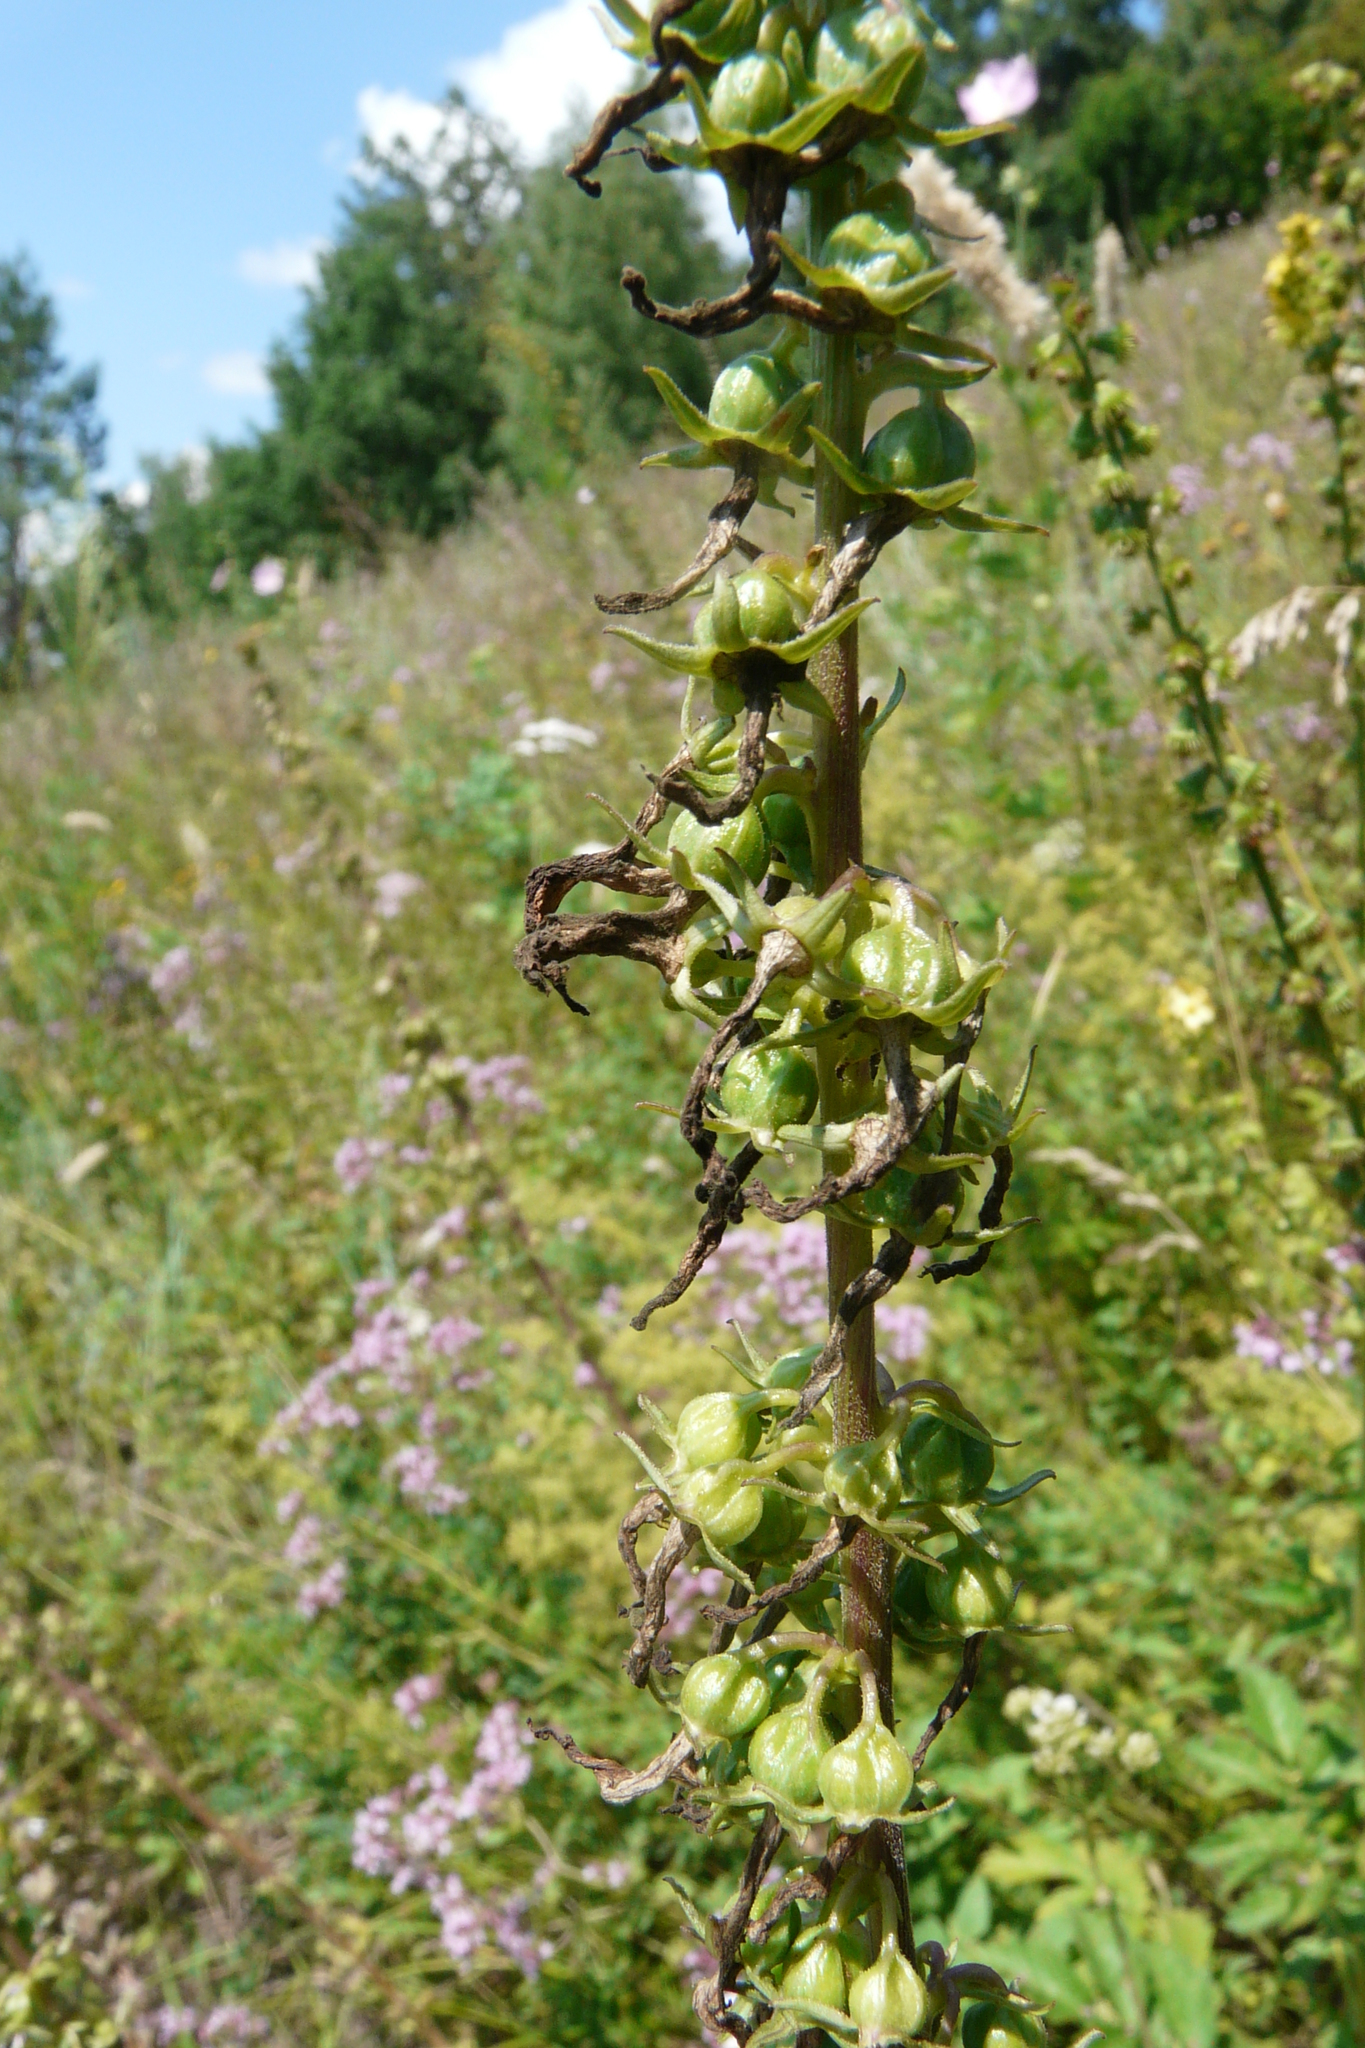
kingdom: Plantae
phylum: Tracheophyta
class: Magnoliopsida
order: Asterales
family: Campanulaceae
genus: Campanula
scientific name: Campanula bononiensis
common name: Pale bellflower
